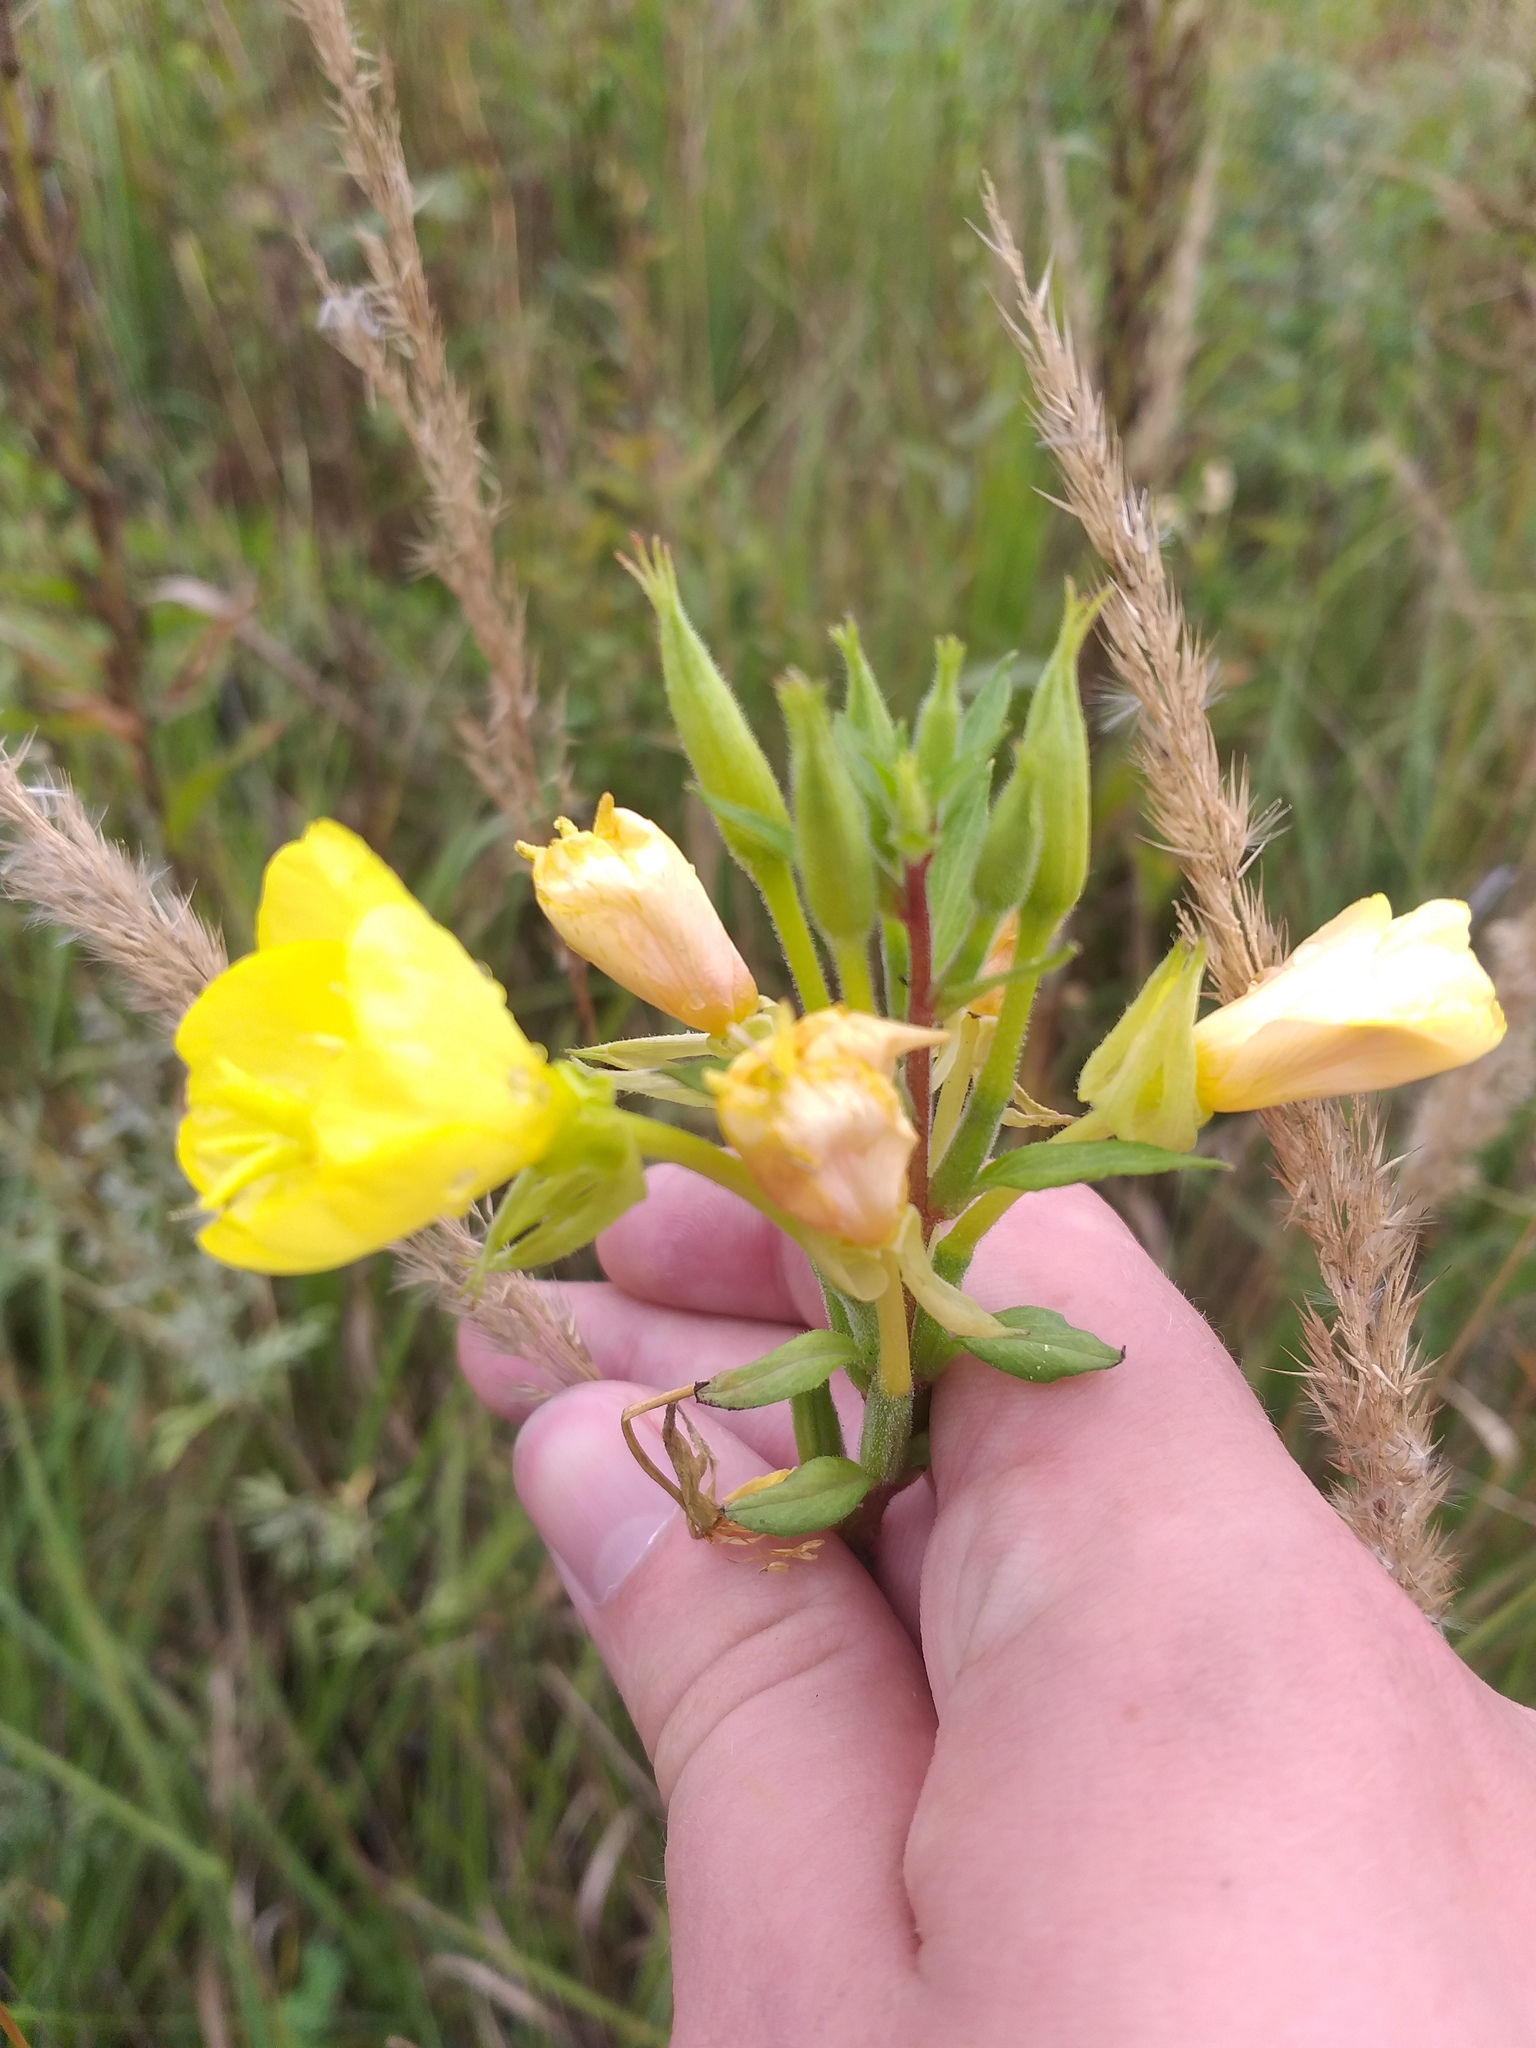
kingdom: Plantae
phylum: Tracheophyta
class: Magnoliopsida
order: Myrtales
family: Onagraceae
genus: Oenothera
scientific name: Oenothera rubricaulis
